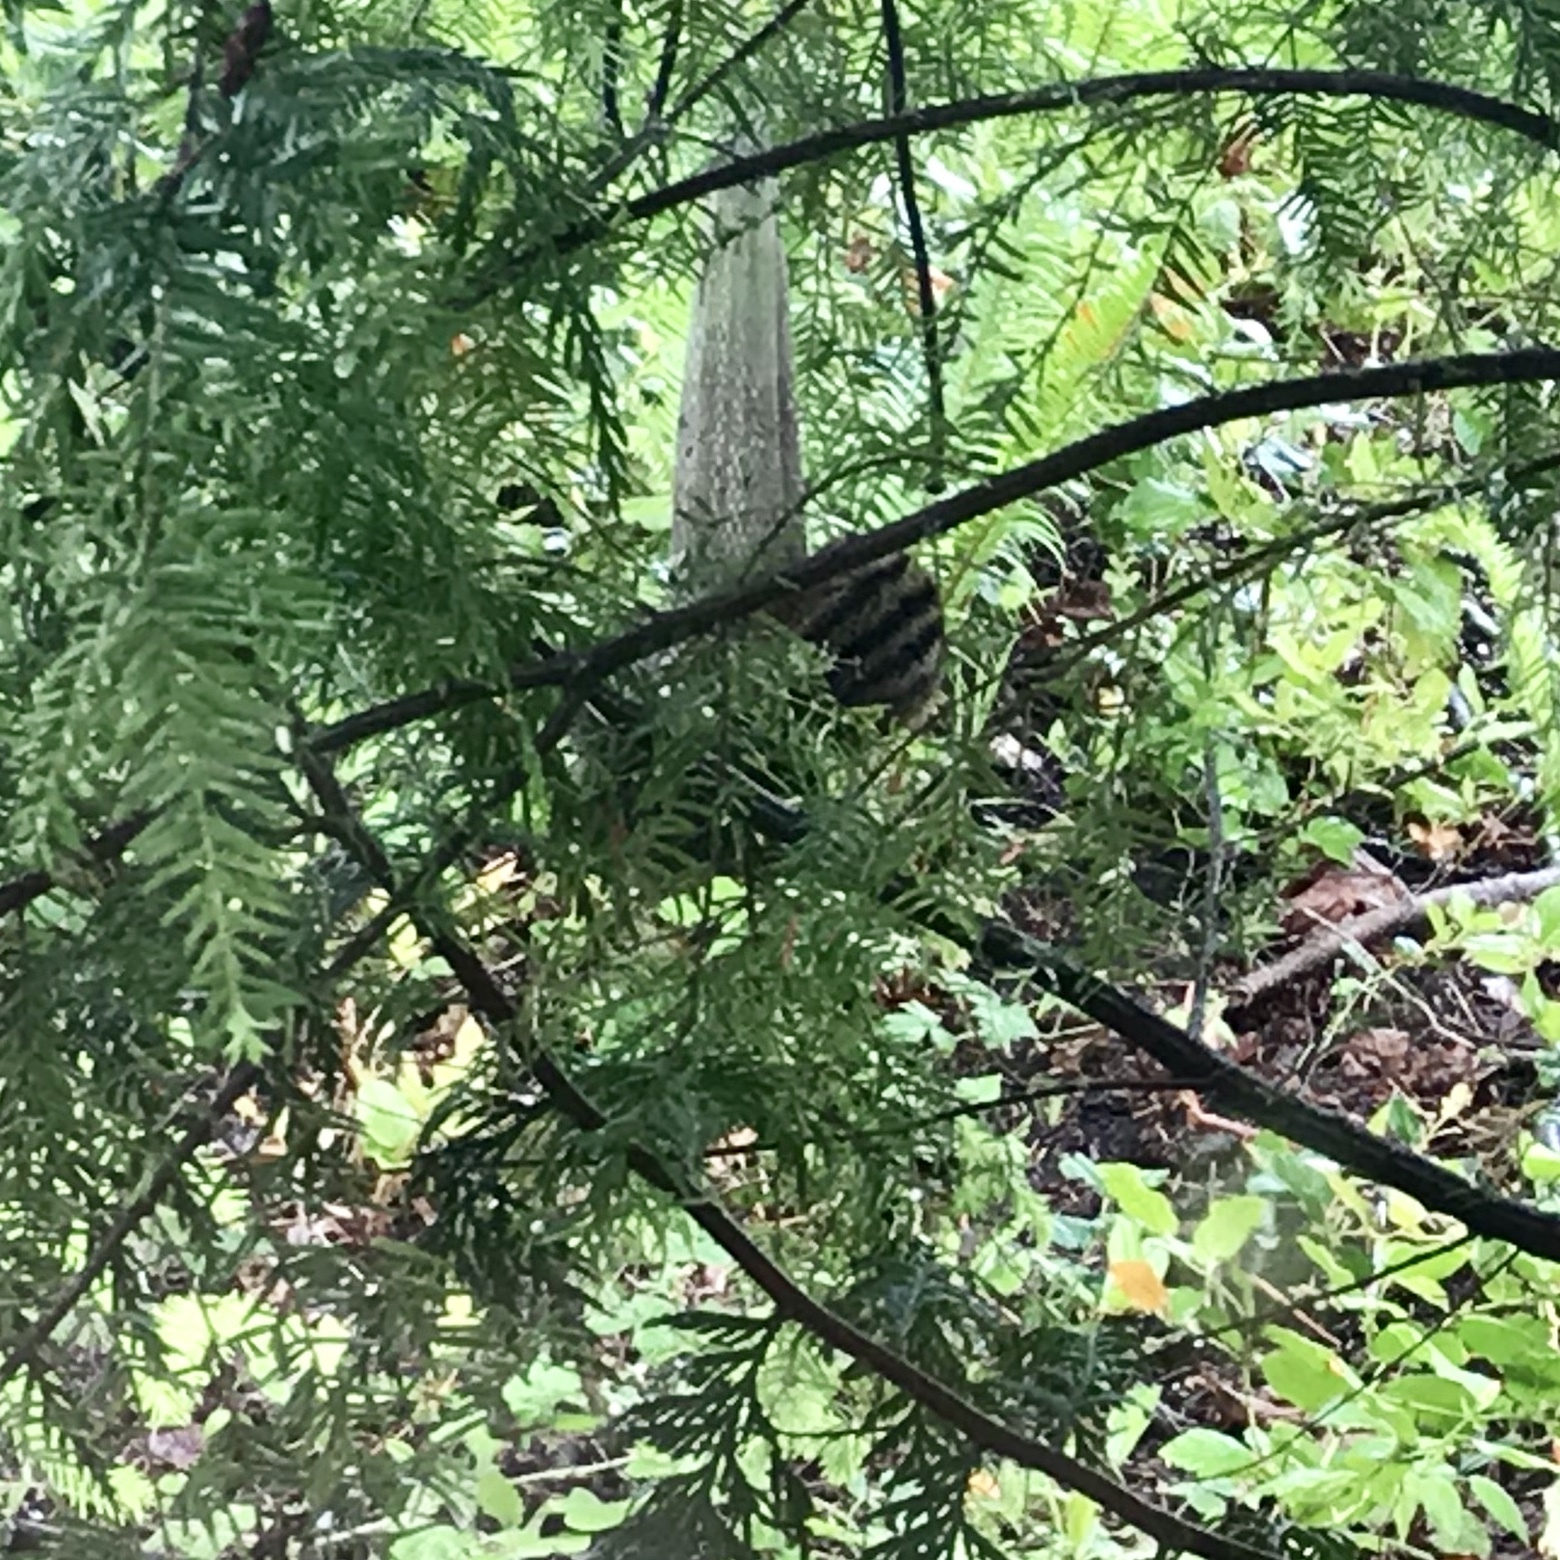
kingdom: Animalia
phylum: Chordata
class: Mammalia
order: Rodentia
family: Sciuridae
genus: Tamias
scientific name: Tamias townsendii
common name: Townsend's chipmunk
